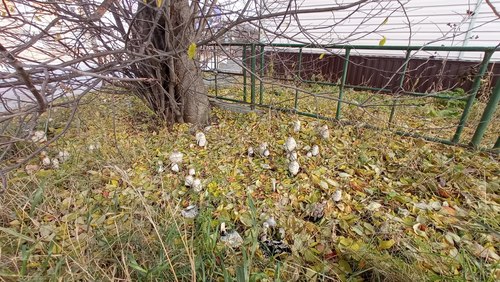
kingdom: Fungi
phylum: Basidiomycota
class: Agaricomycetes
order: Agaricales
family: Agaricaceae
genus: Coprinus
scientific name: Coprinus comatus
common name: Lawyer's wig
